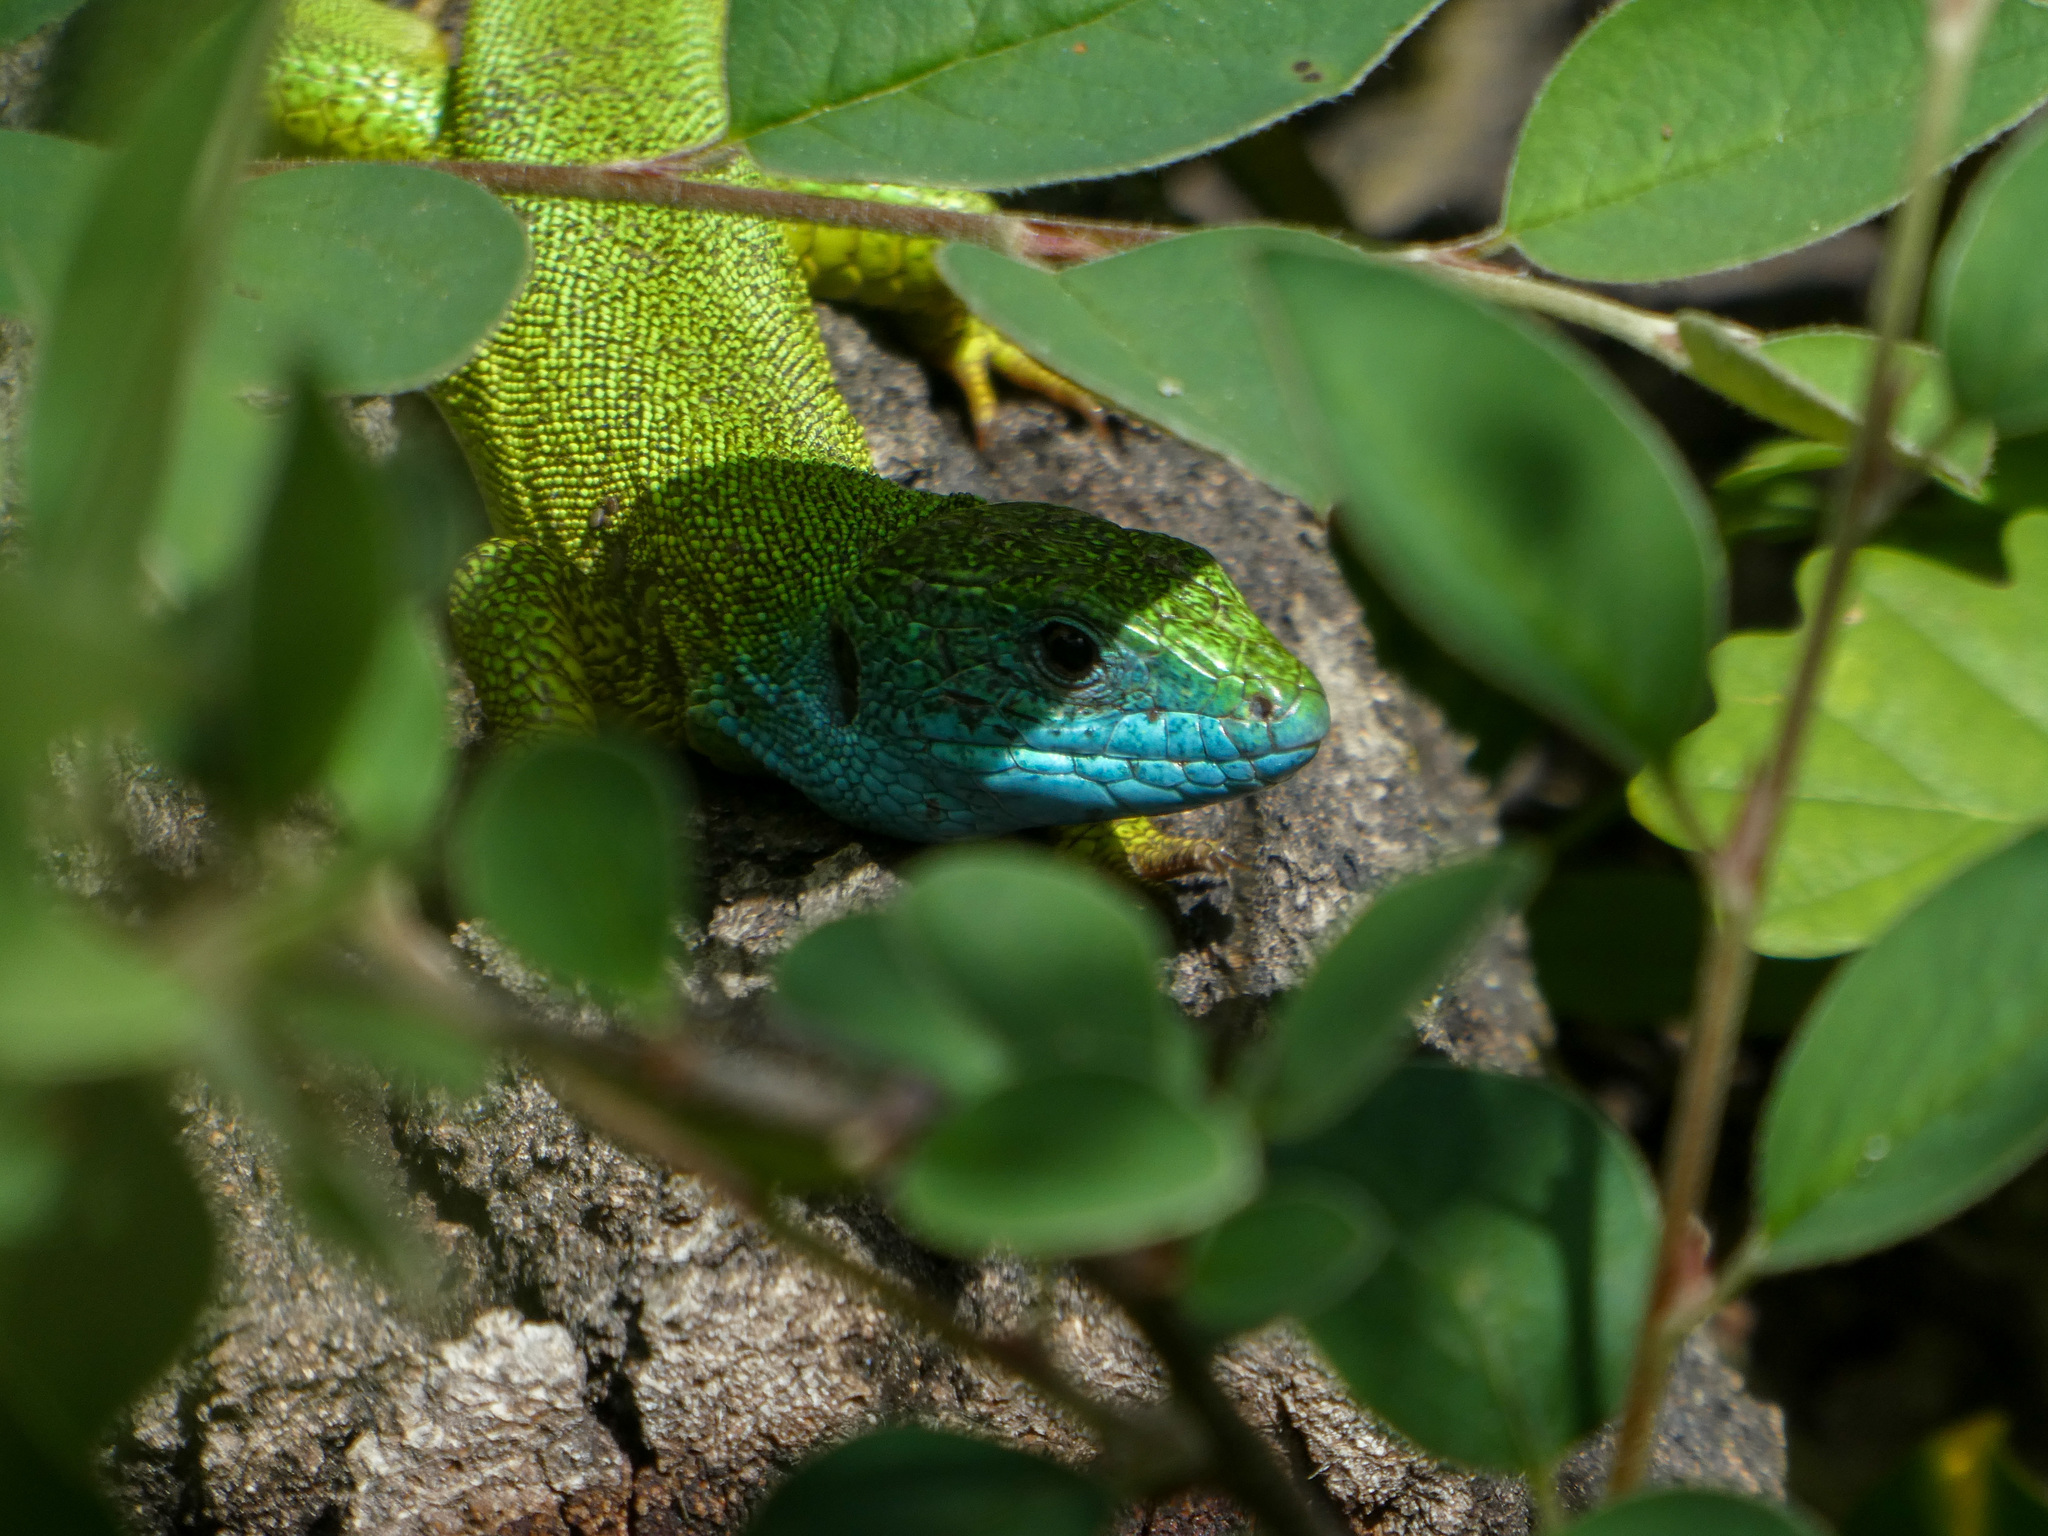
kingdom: Animalia
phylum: Chordata
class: Squamata
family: Lacertidae
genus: Lacerta
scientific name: Lacerta viridis
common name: European green lizard
